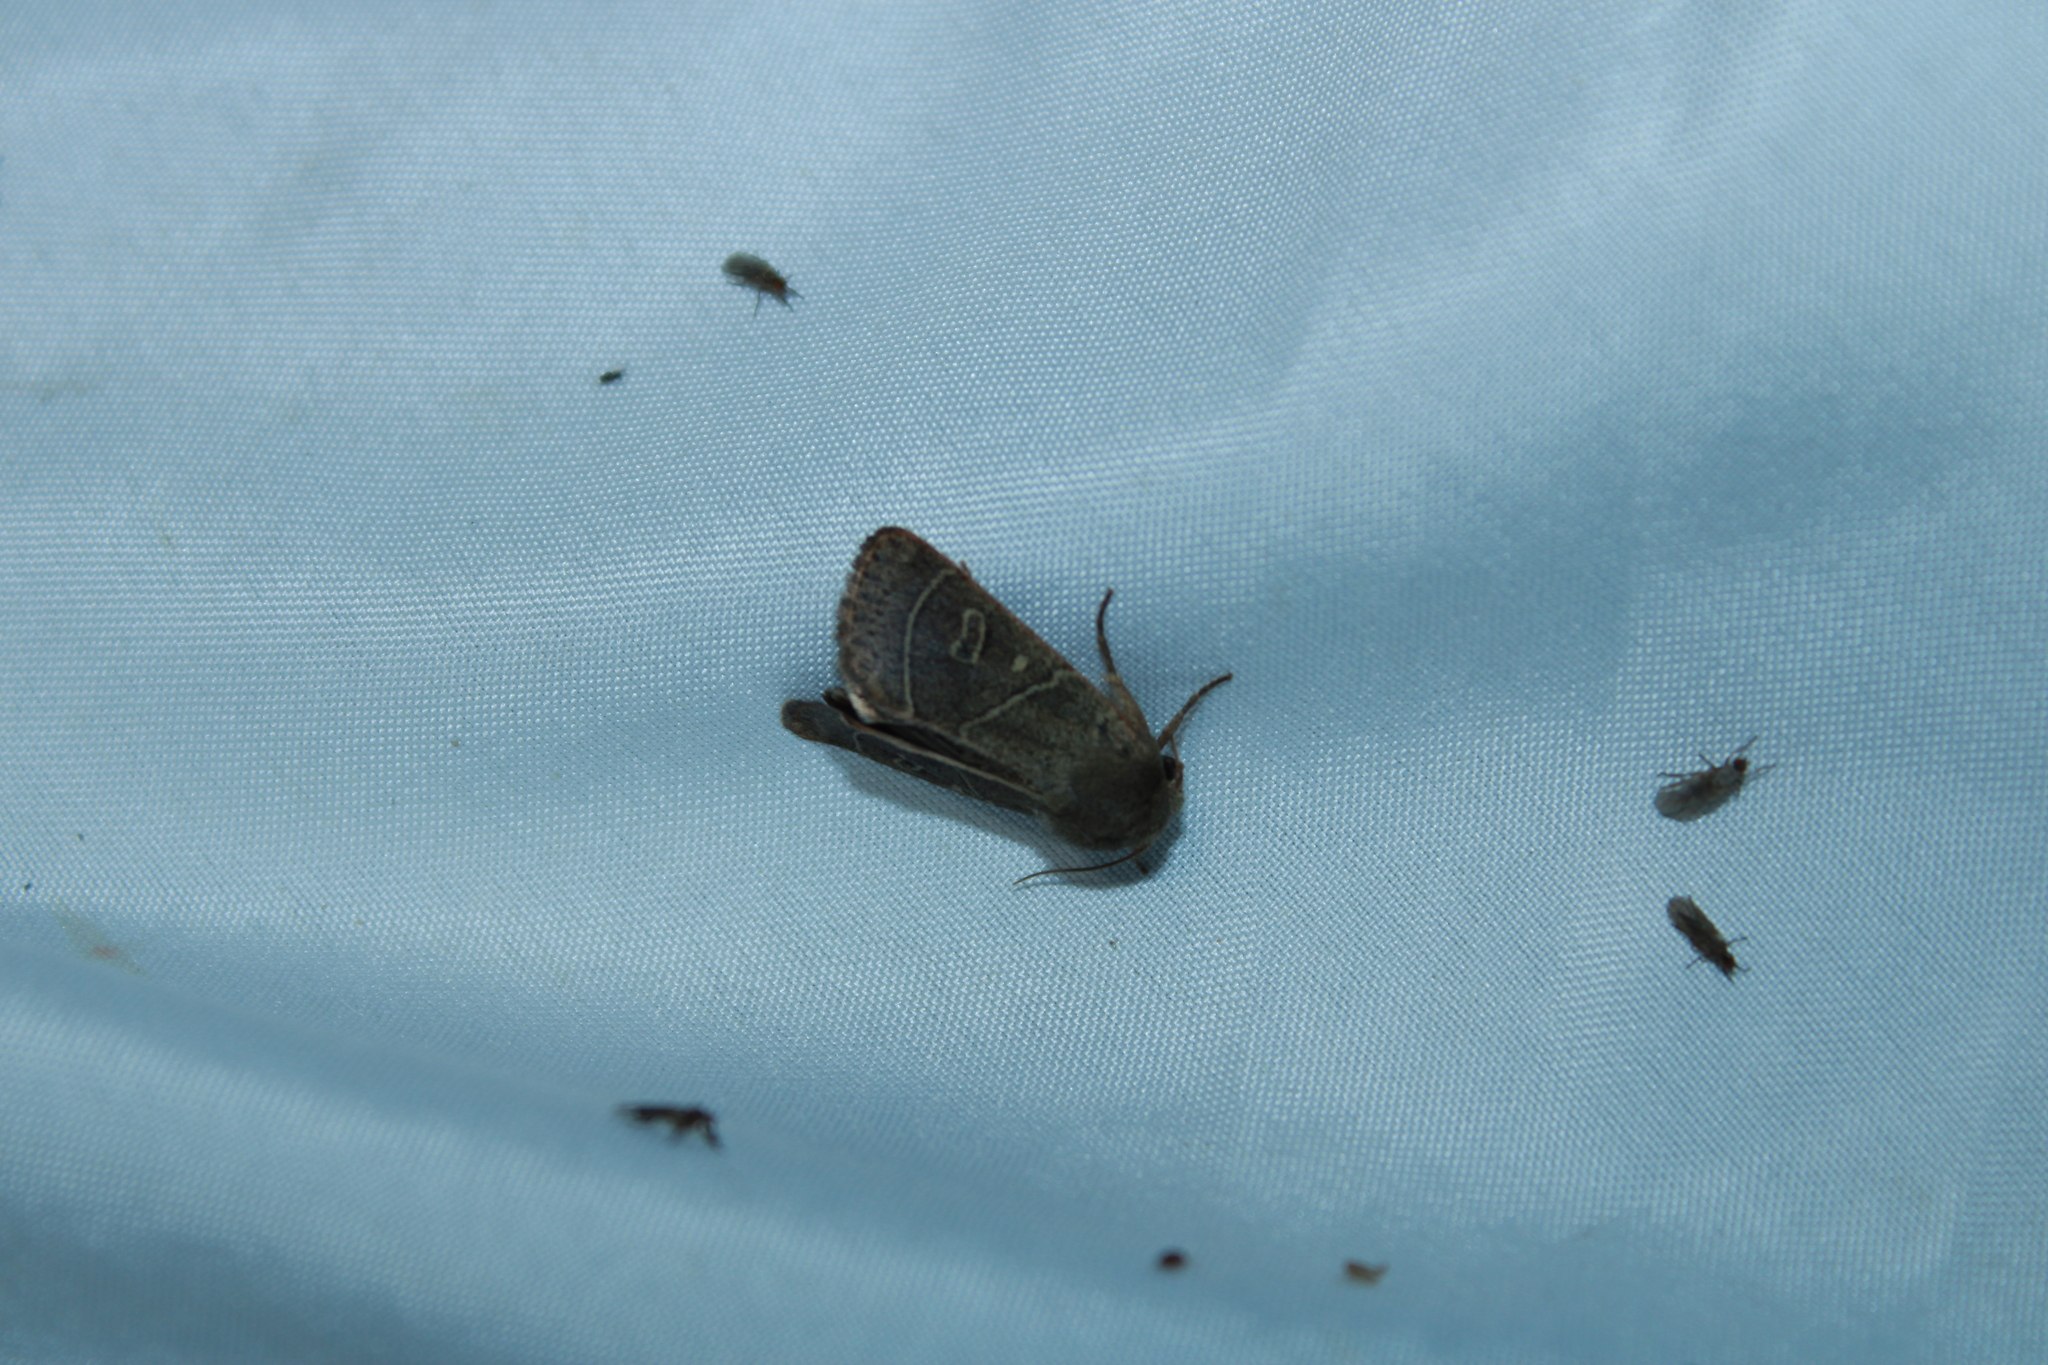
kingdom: Animalia
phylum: Arthropoda
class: Insecta
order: Lepidoptera
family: Noctuidae
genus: Ulolonche
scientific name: Ulolonche culea
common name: Sheathed quaker
